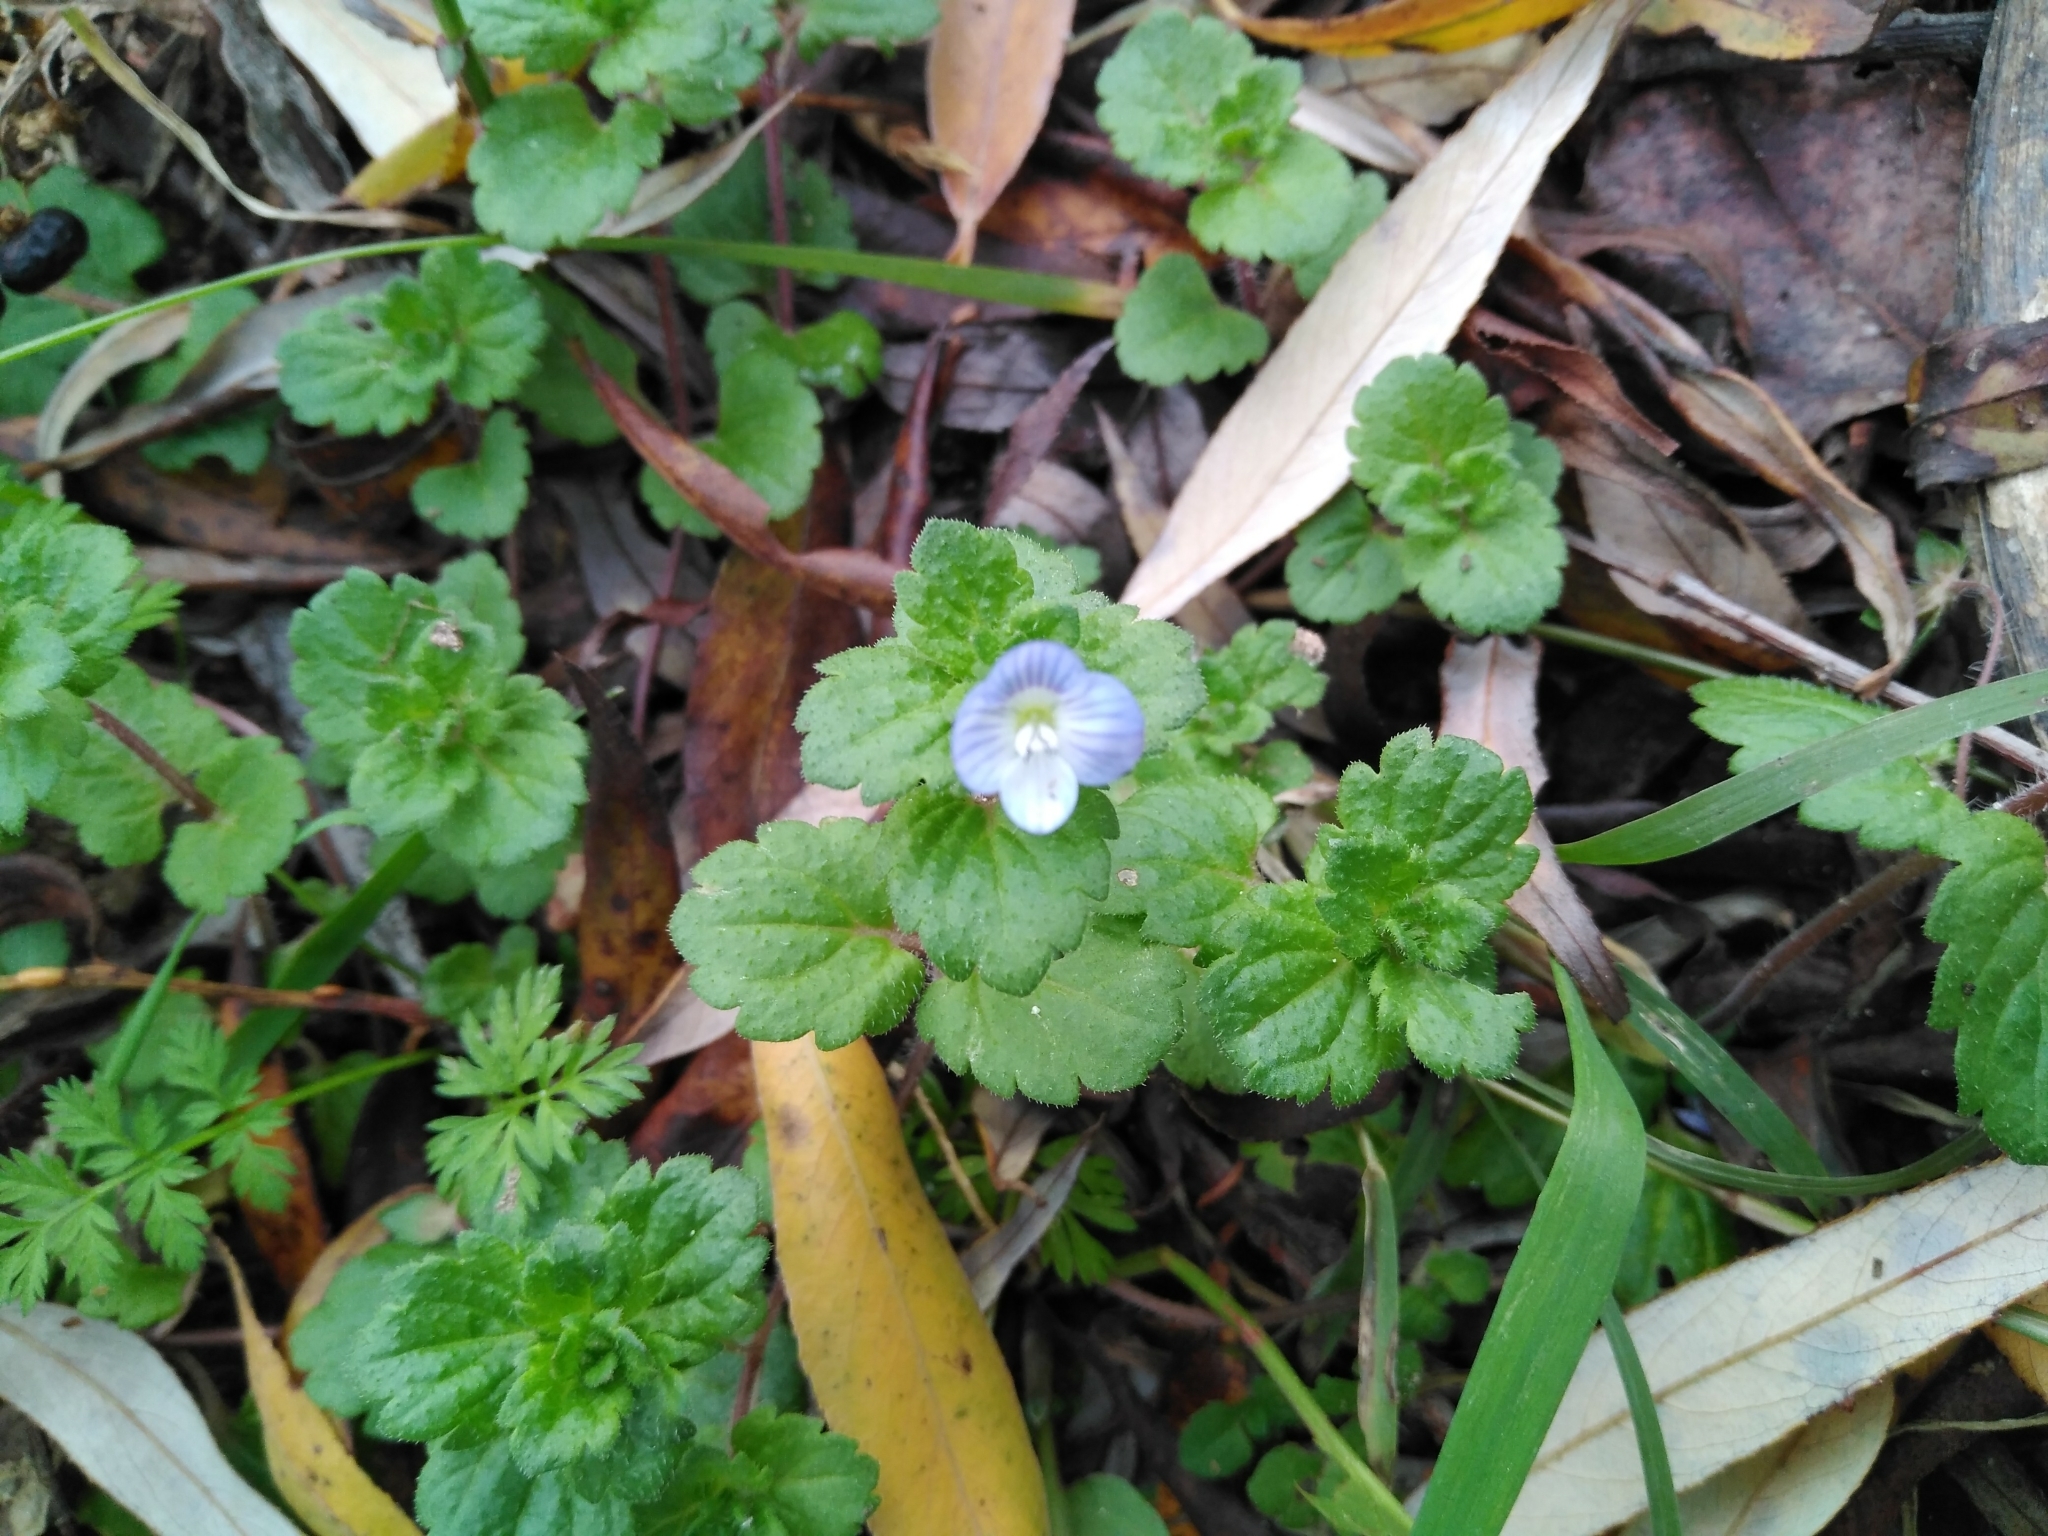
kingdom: Plantae
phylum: Tracheophyta
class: Magnoliopsida
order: Lamiales
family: Plantaginaceae
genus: Veronica
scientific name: Veronica persica
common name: Common field-speedwell
